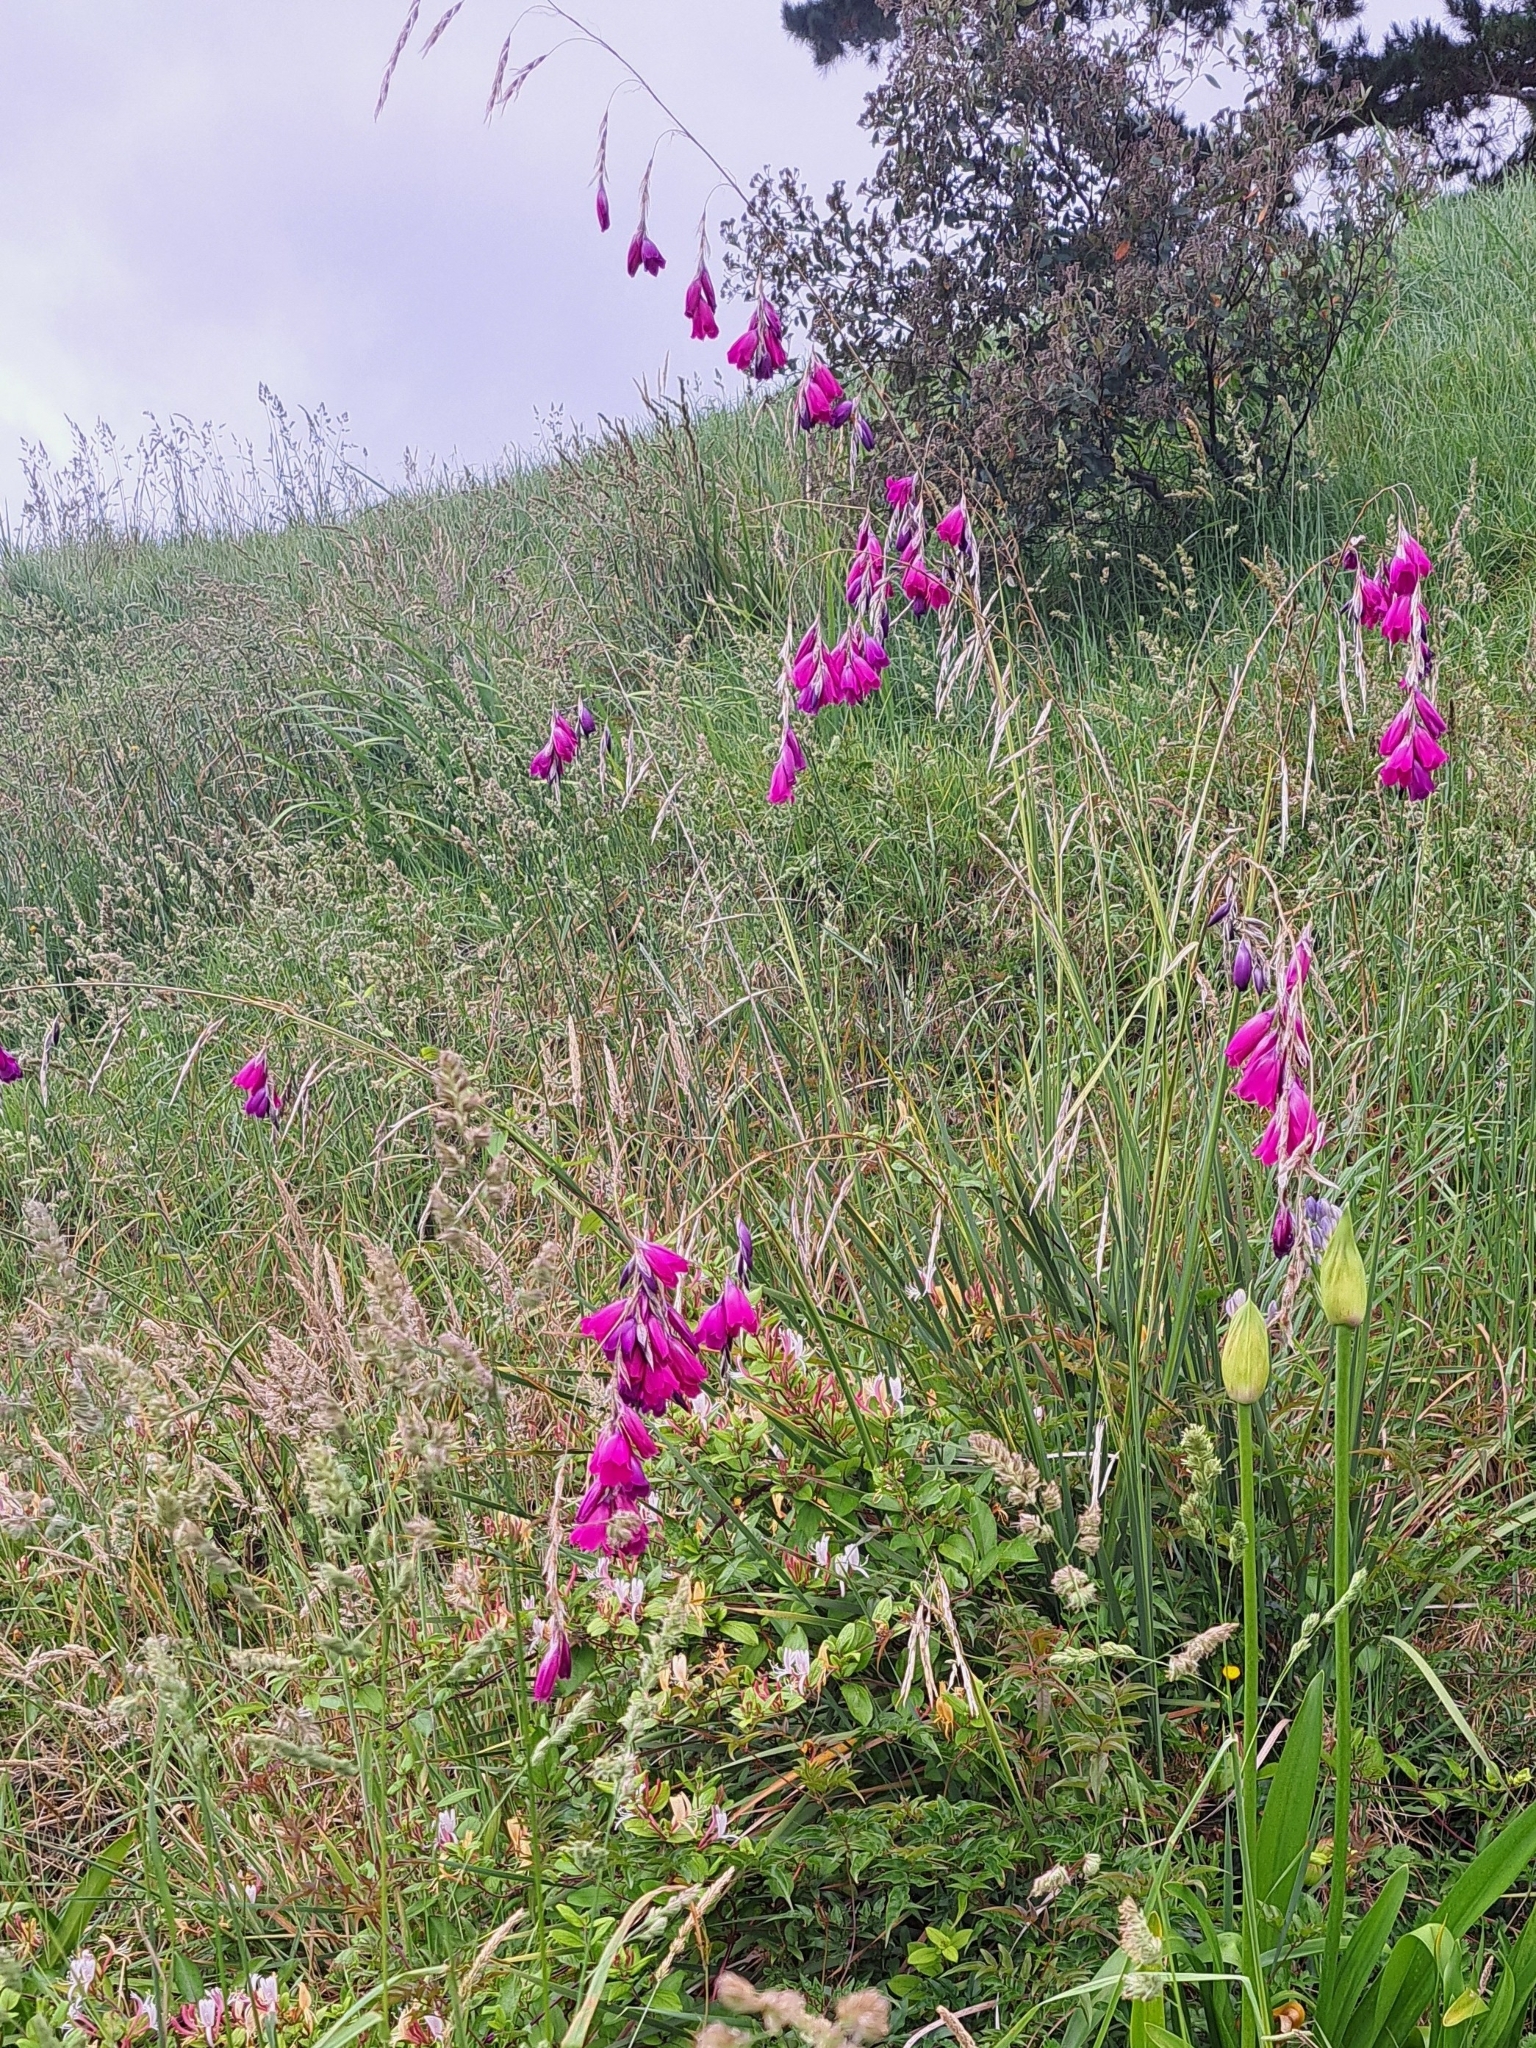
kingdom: Plantae
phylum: Tracheophyta
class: Liliopsida
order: Asparagales
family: Iridaceae
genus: Dierama
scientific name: Dierama pulcherrimum
